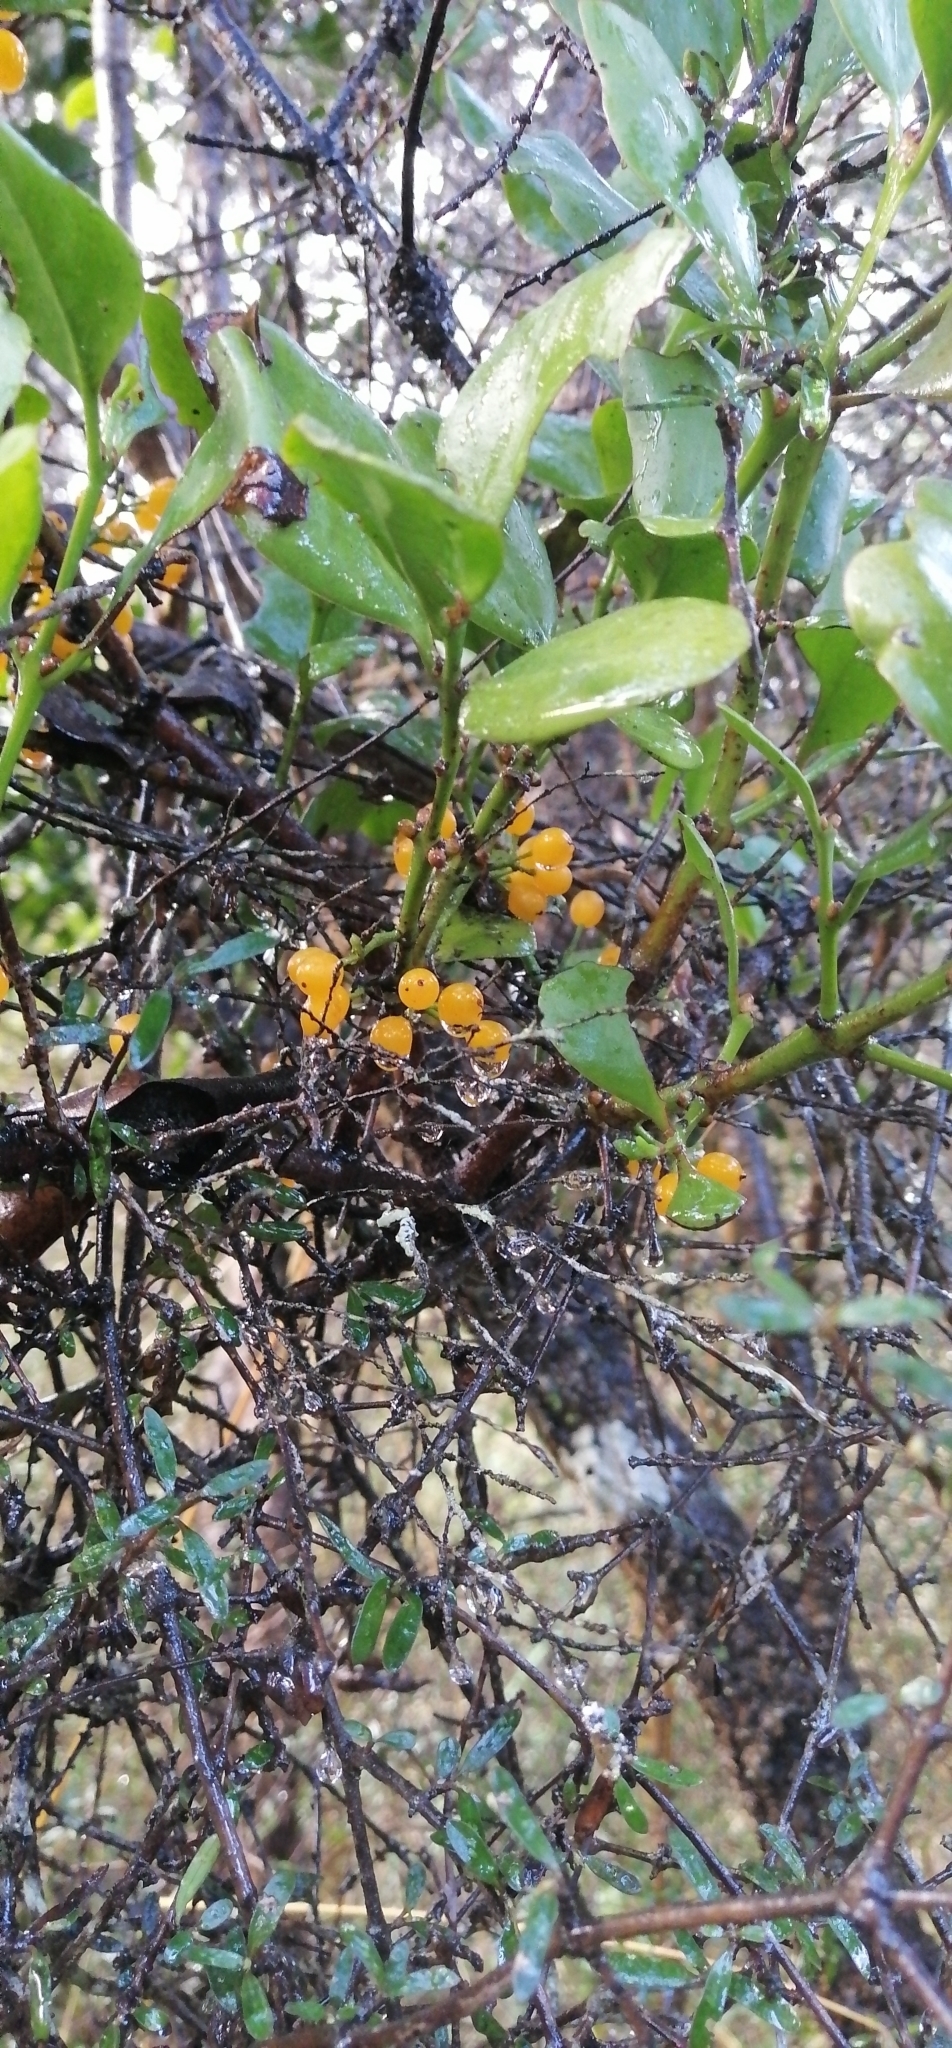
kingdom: Plantae
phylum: Tracheophyta
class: Magnoliopsida
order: Santalales
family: Loranthaceae
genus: Ileostylus
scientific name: Ileostylus micranthus
